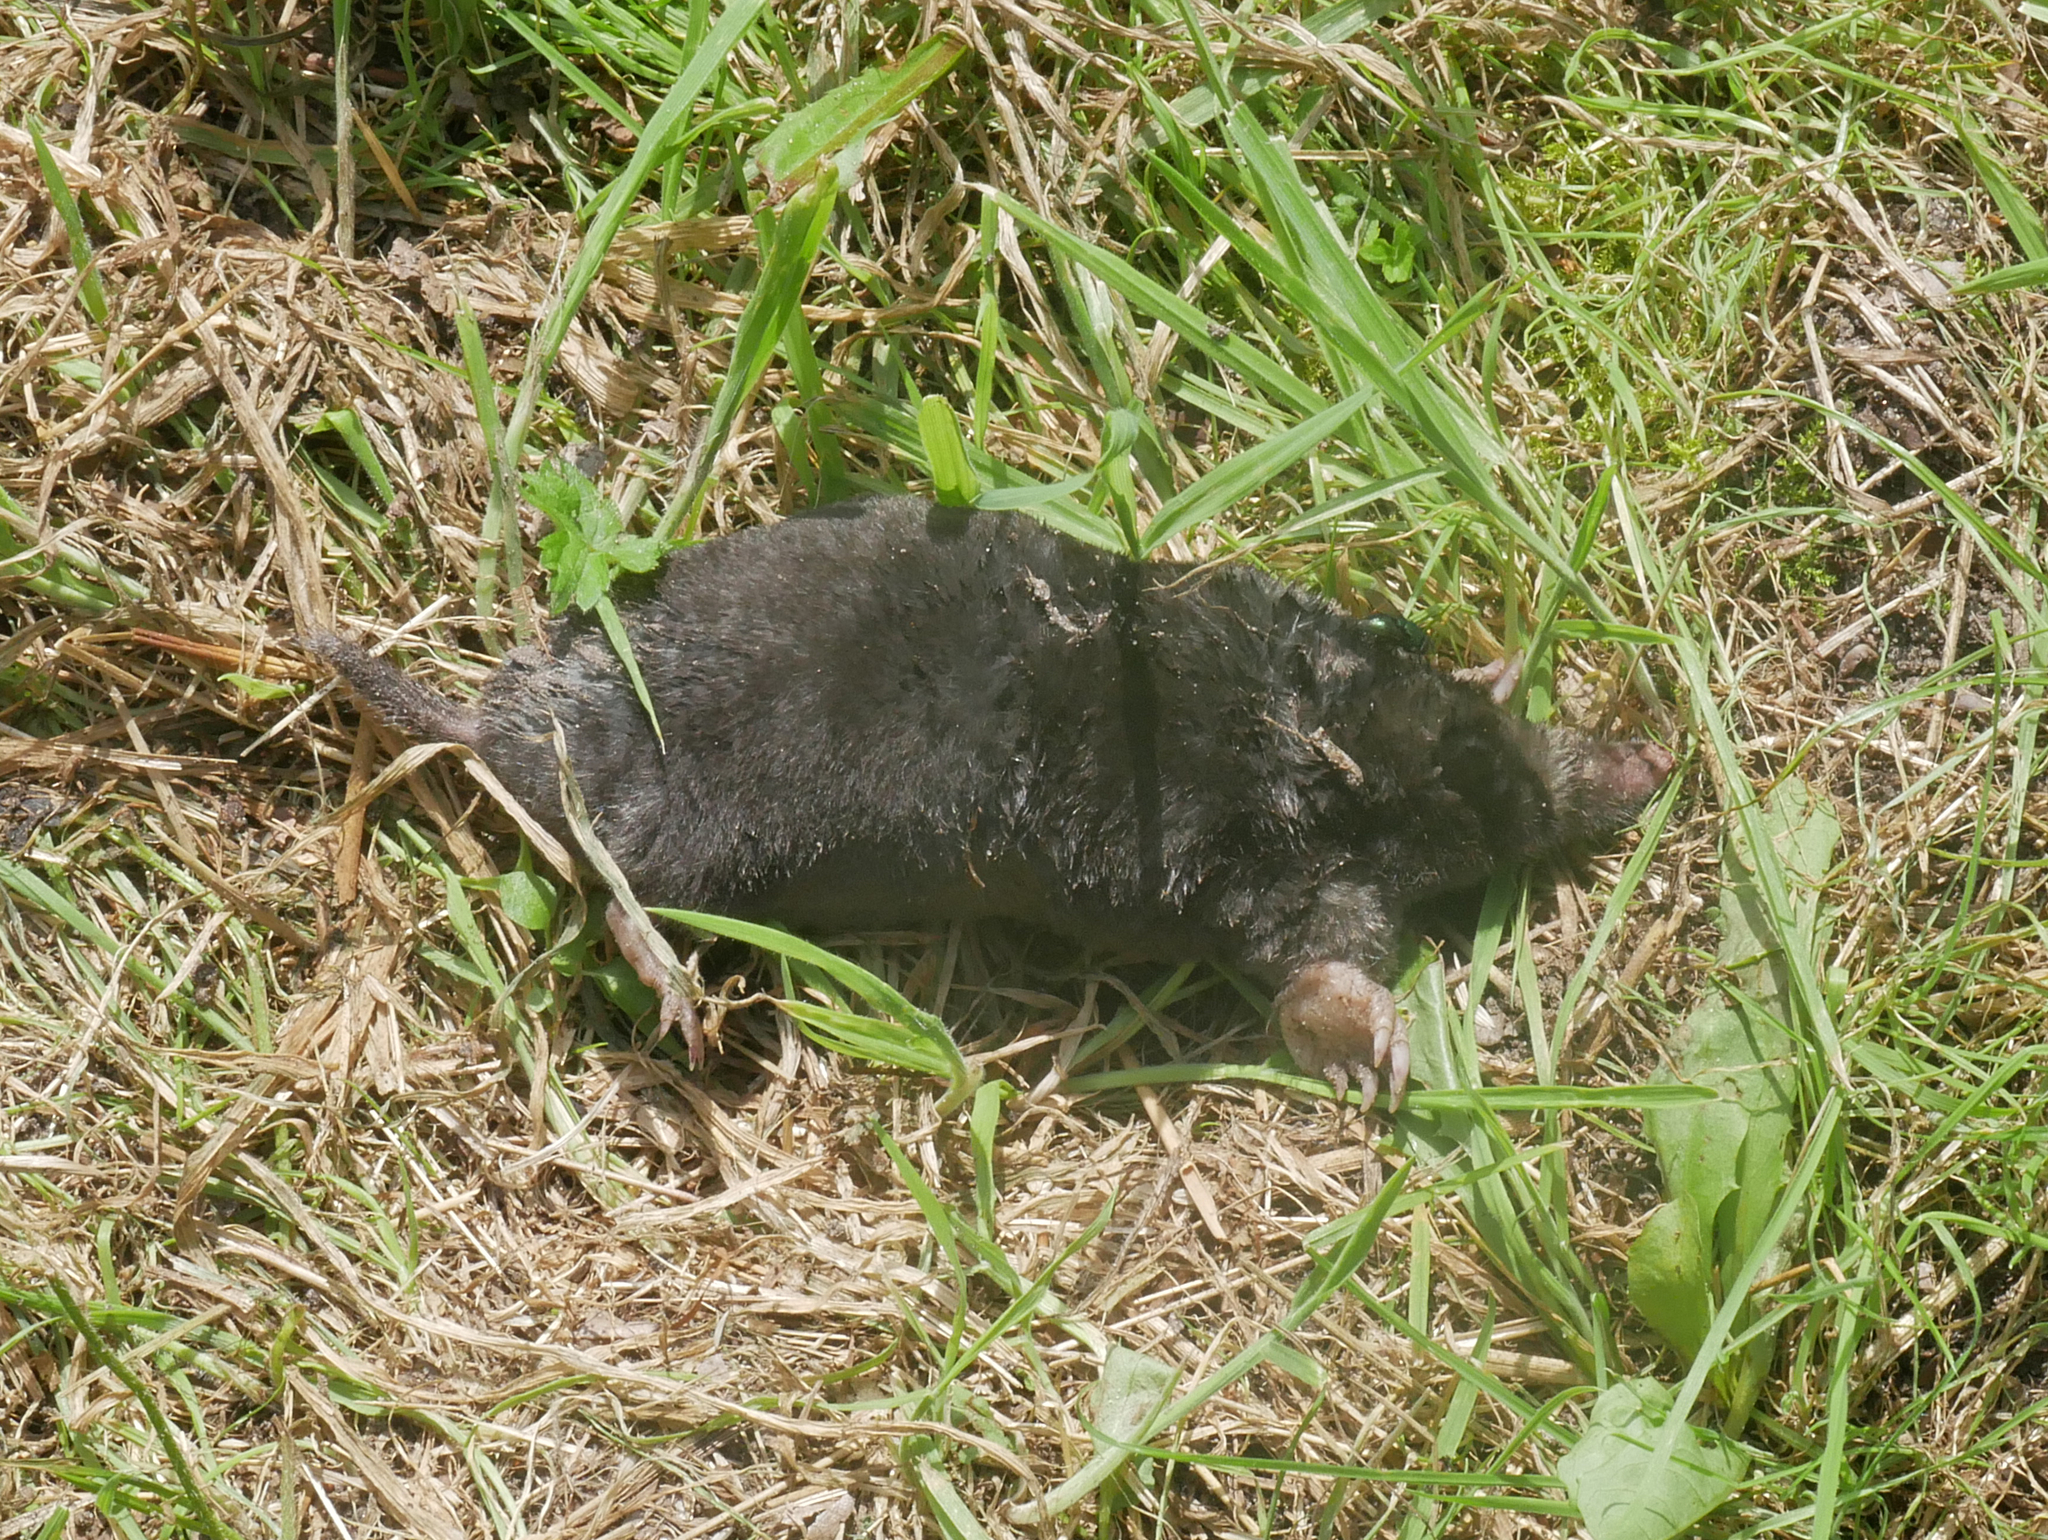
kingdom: Animalia
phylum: Chordata
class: Mammalia
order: Soricomorpha
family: Talpidae
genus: Talpa
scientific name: Talpa europaea
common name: European mole
